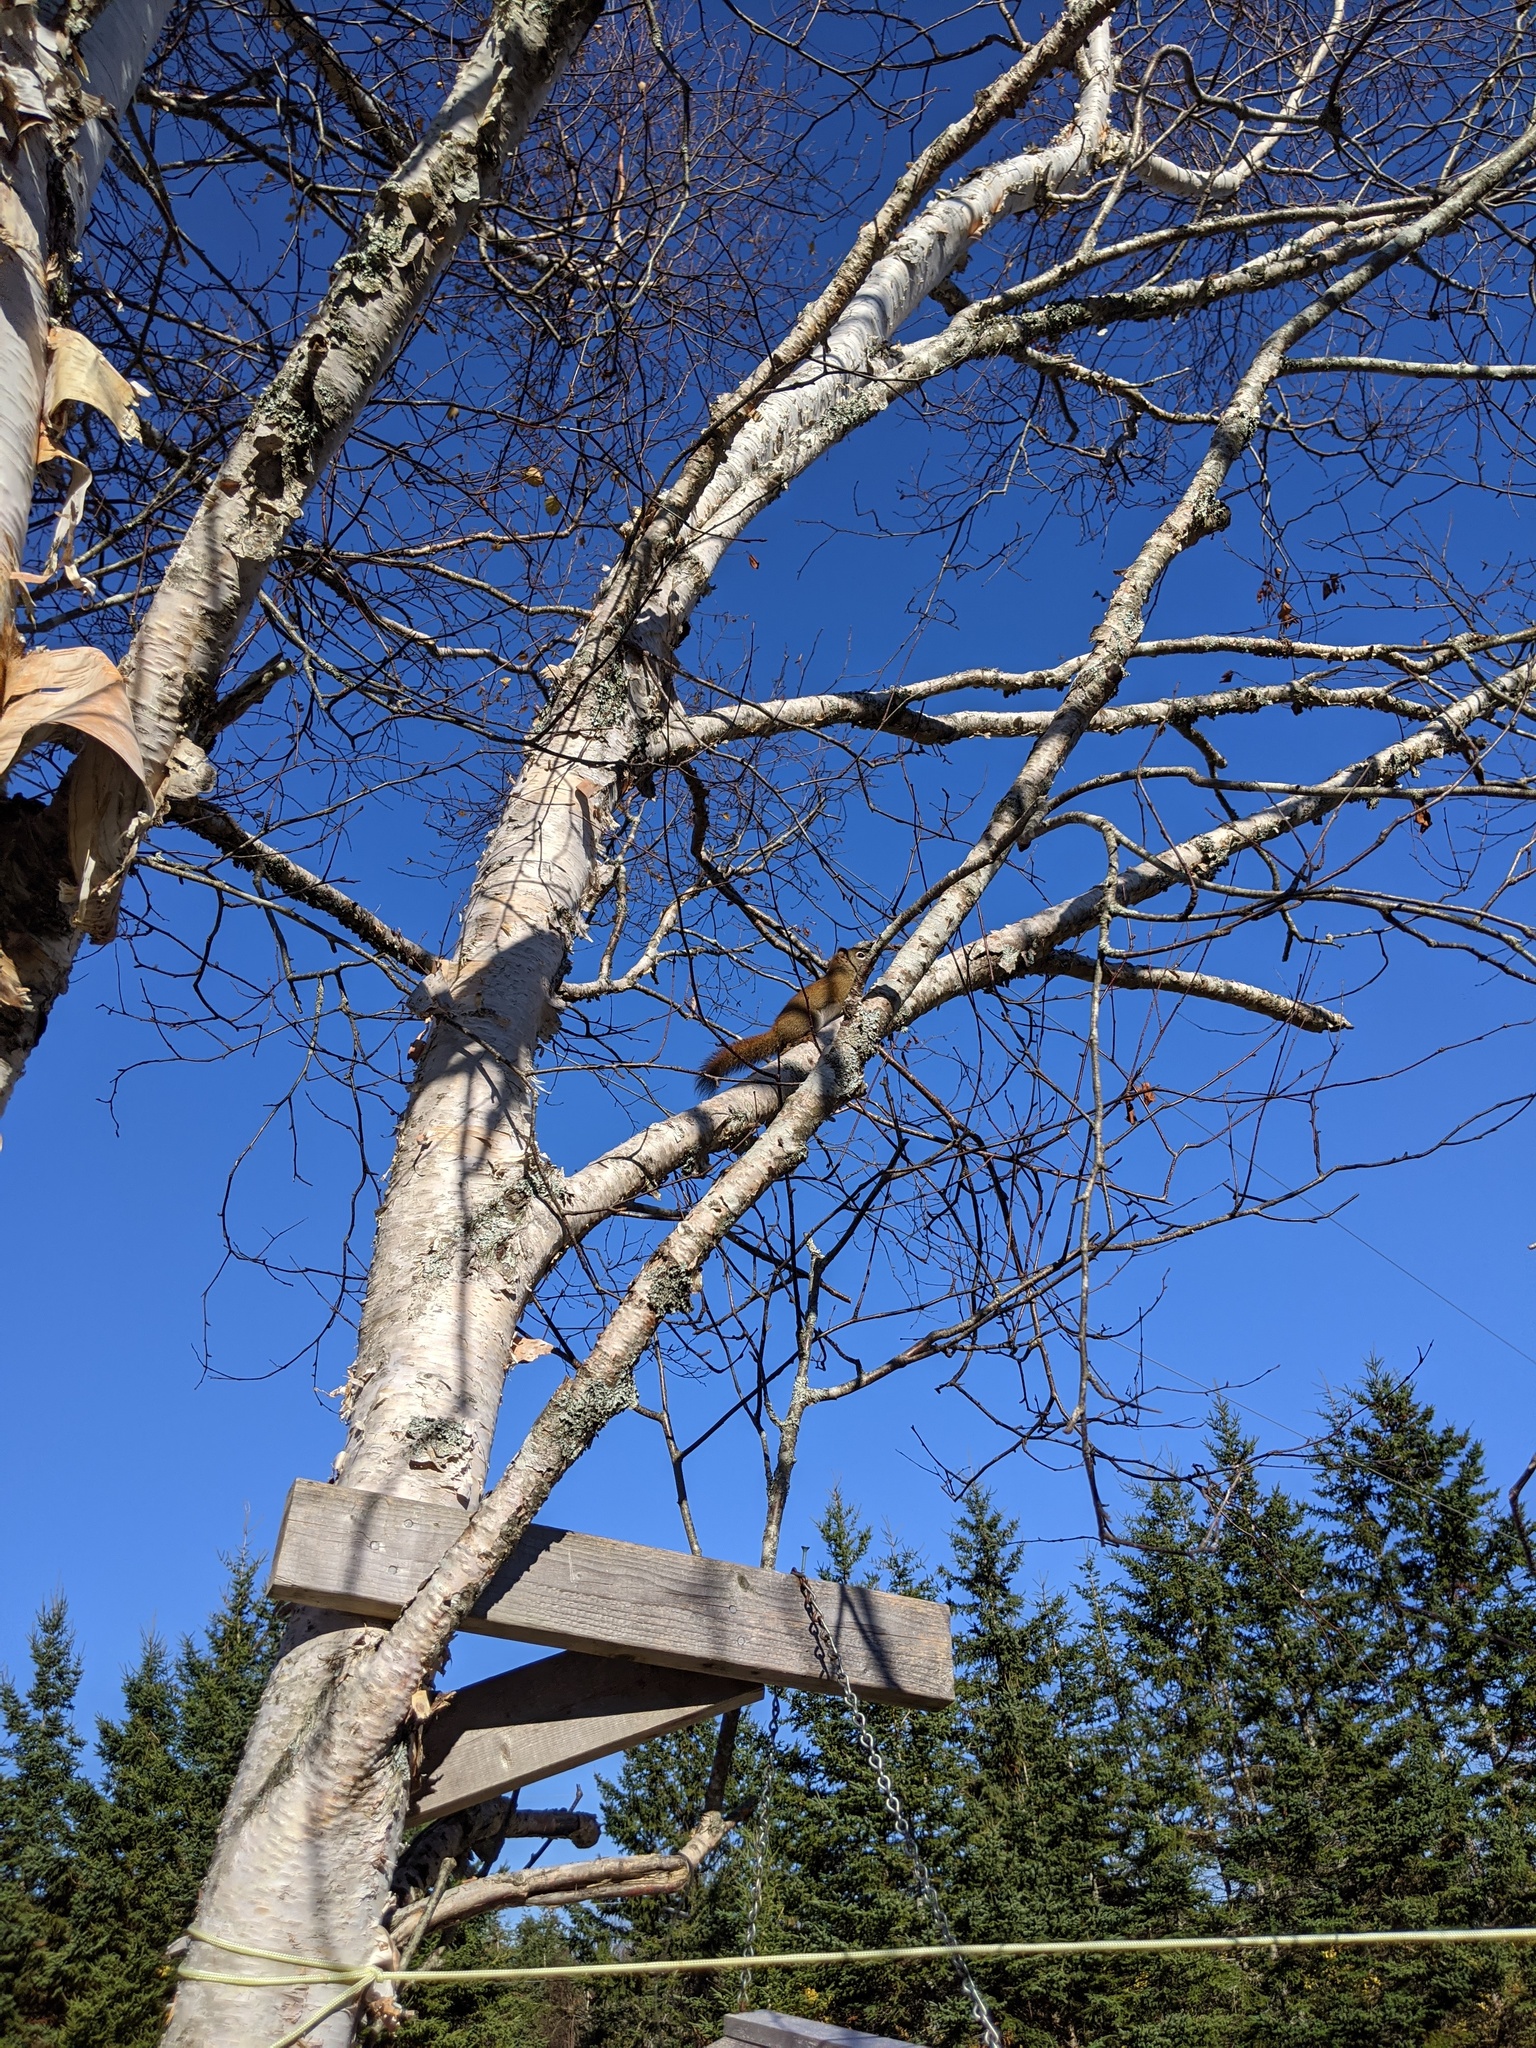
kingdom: Animalia
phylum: Chordata
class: Mammalia
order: Rodentia
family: Sciuridae
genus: Tamiasciurus
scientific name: Tamiasciurus hudsonicus
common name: Red squirrel
